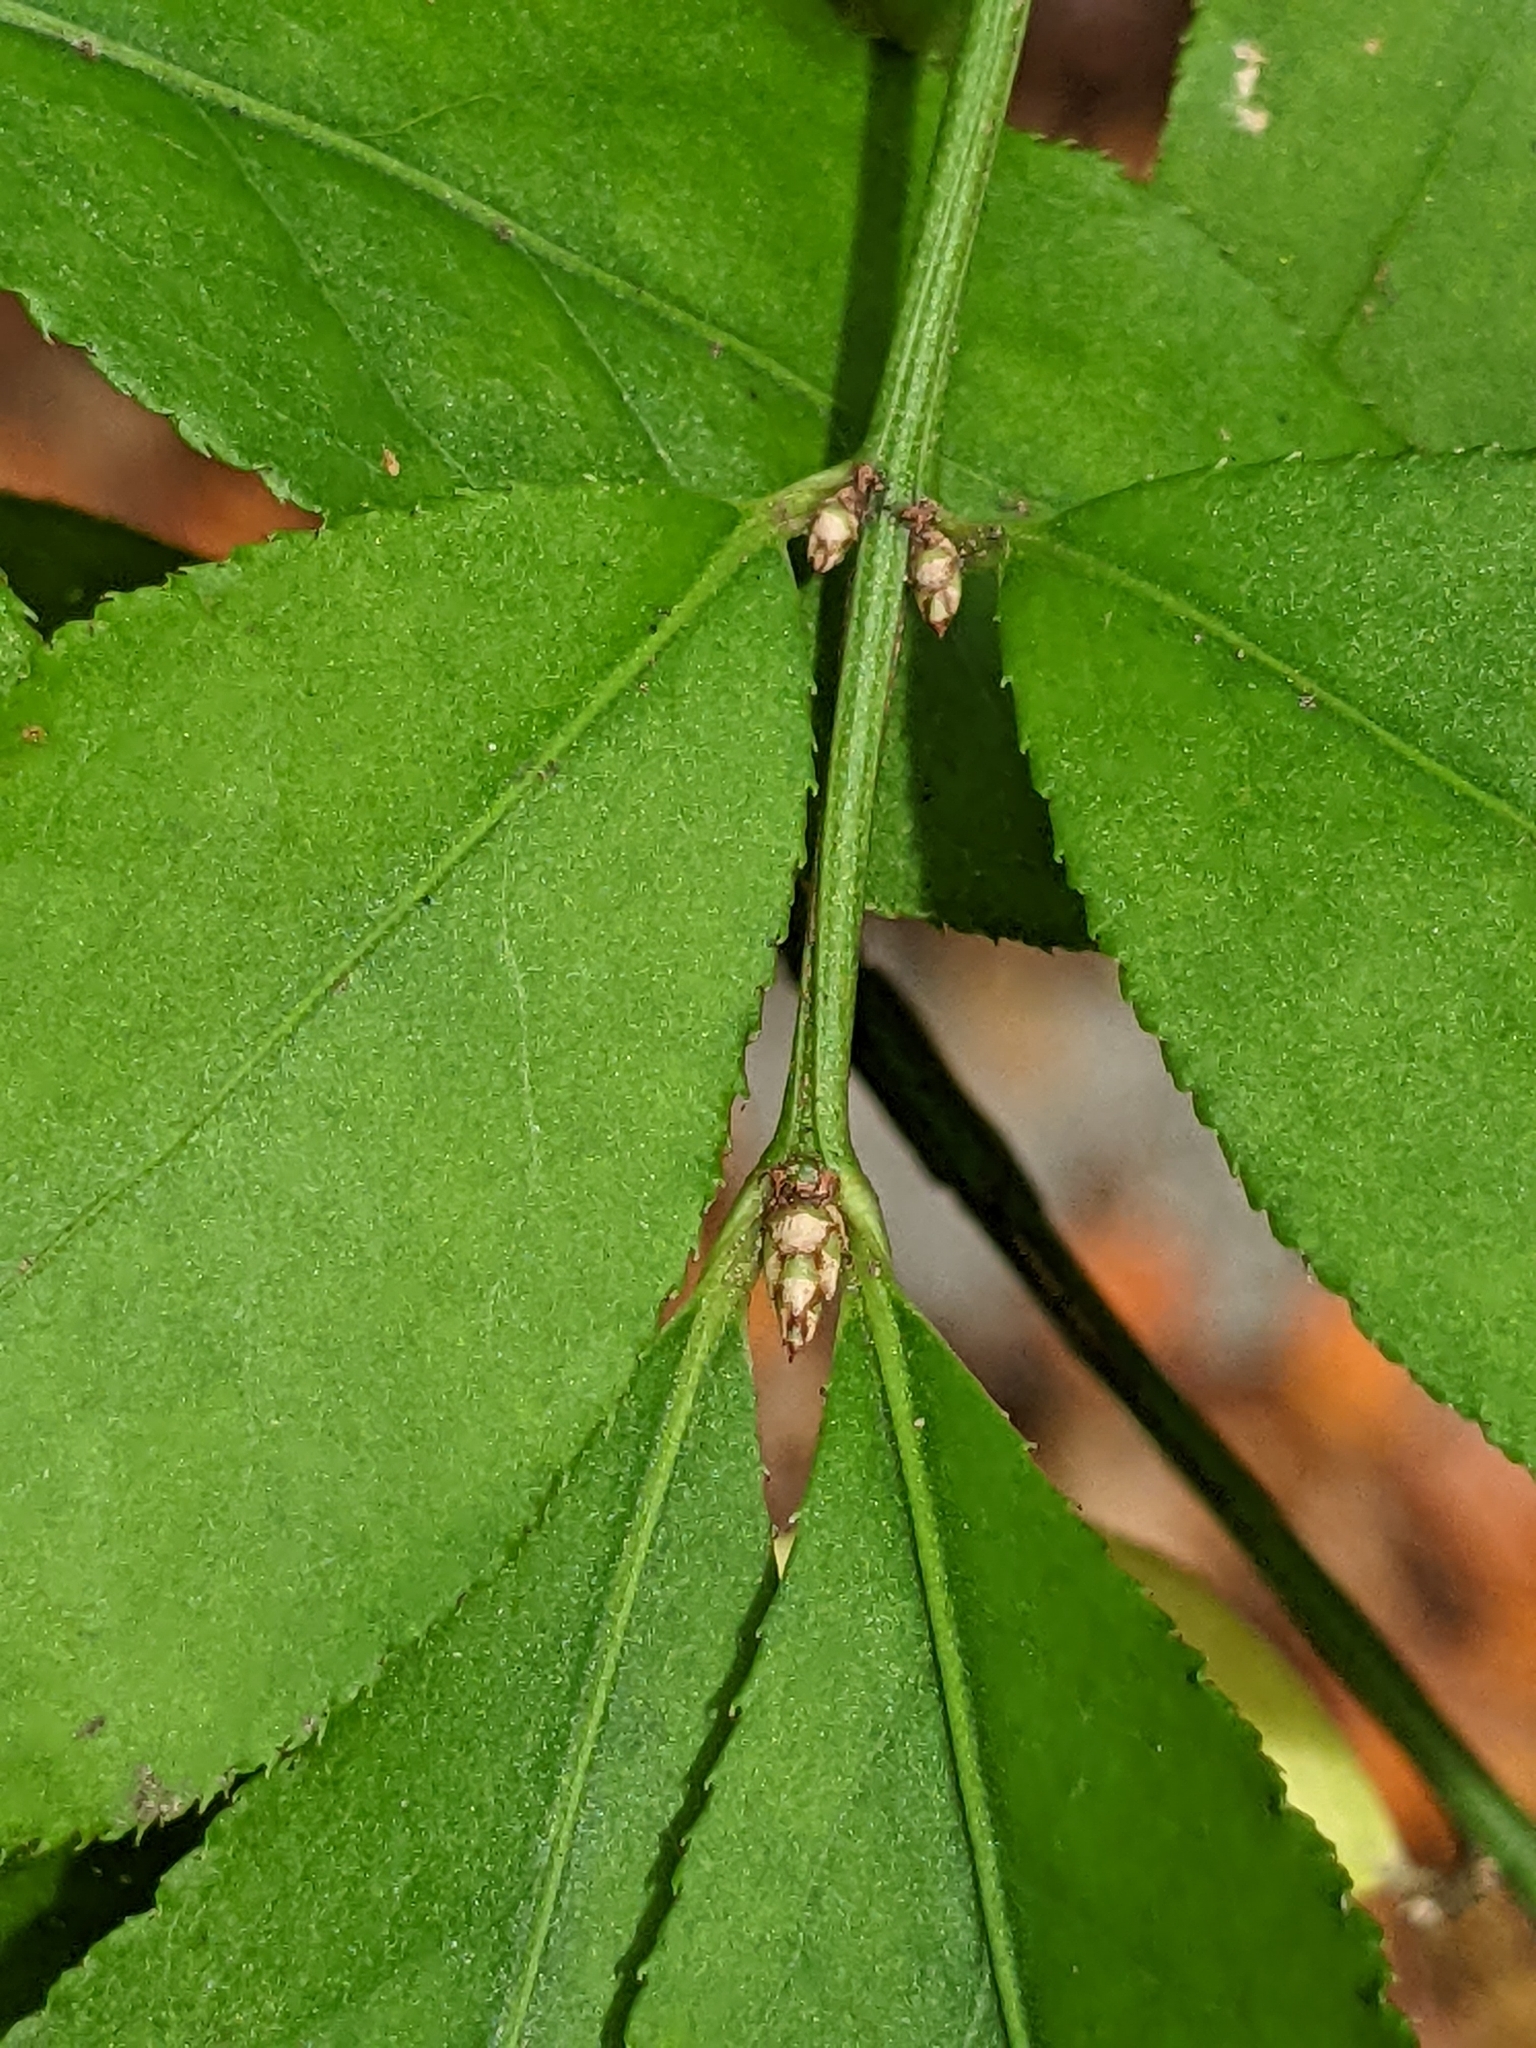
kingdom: Plantae
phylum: Tracheophyta
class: Magnoliopsida
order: Celastrales
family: Celastraceae
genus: Euonymus
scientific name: Euonymus alatus
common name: Winged euonymus
